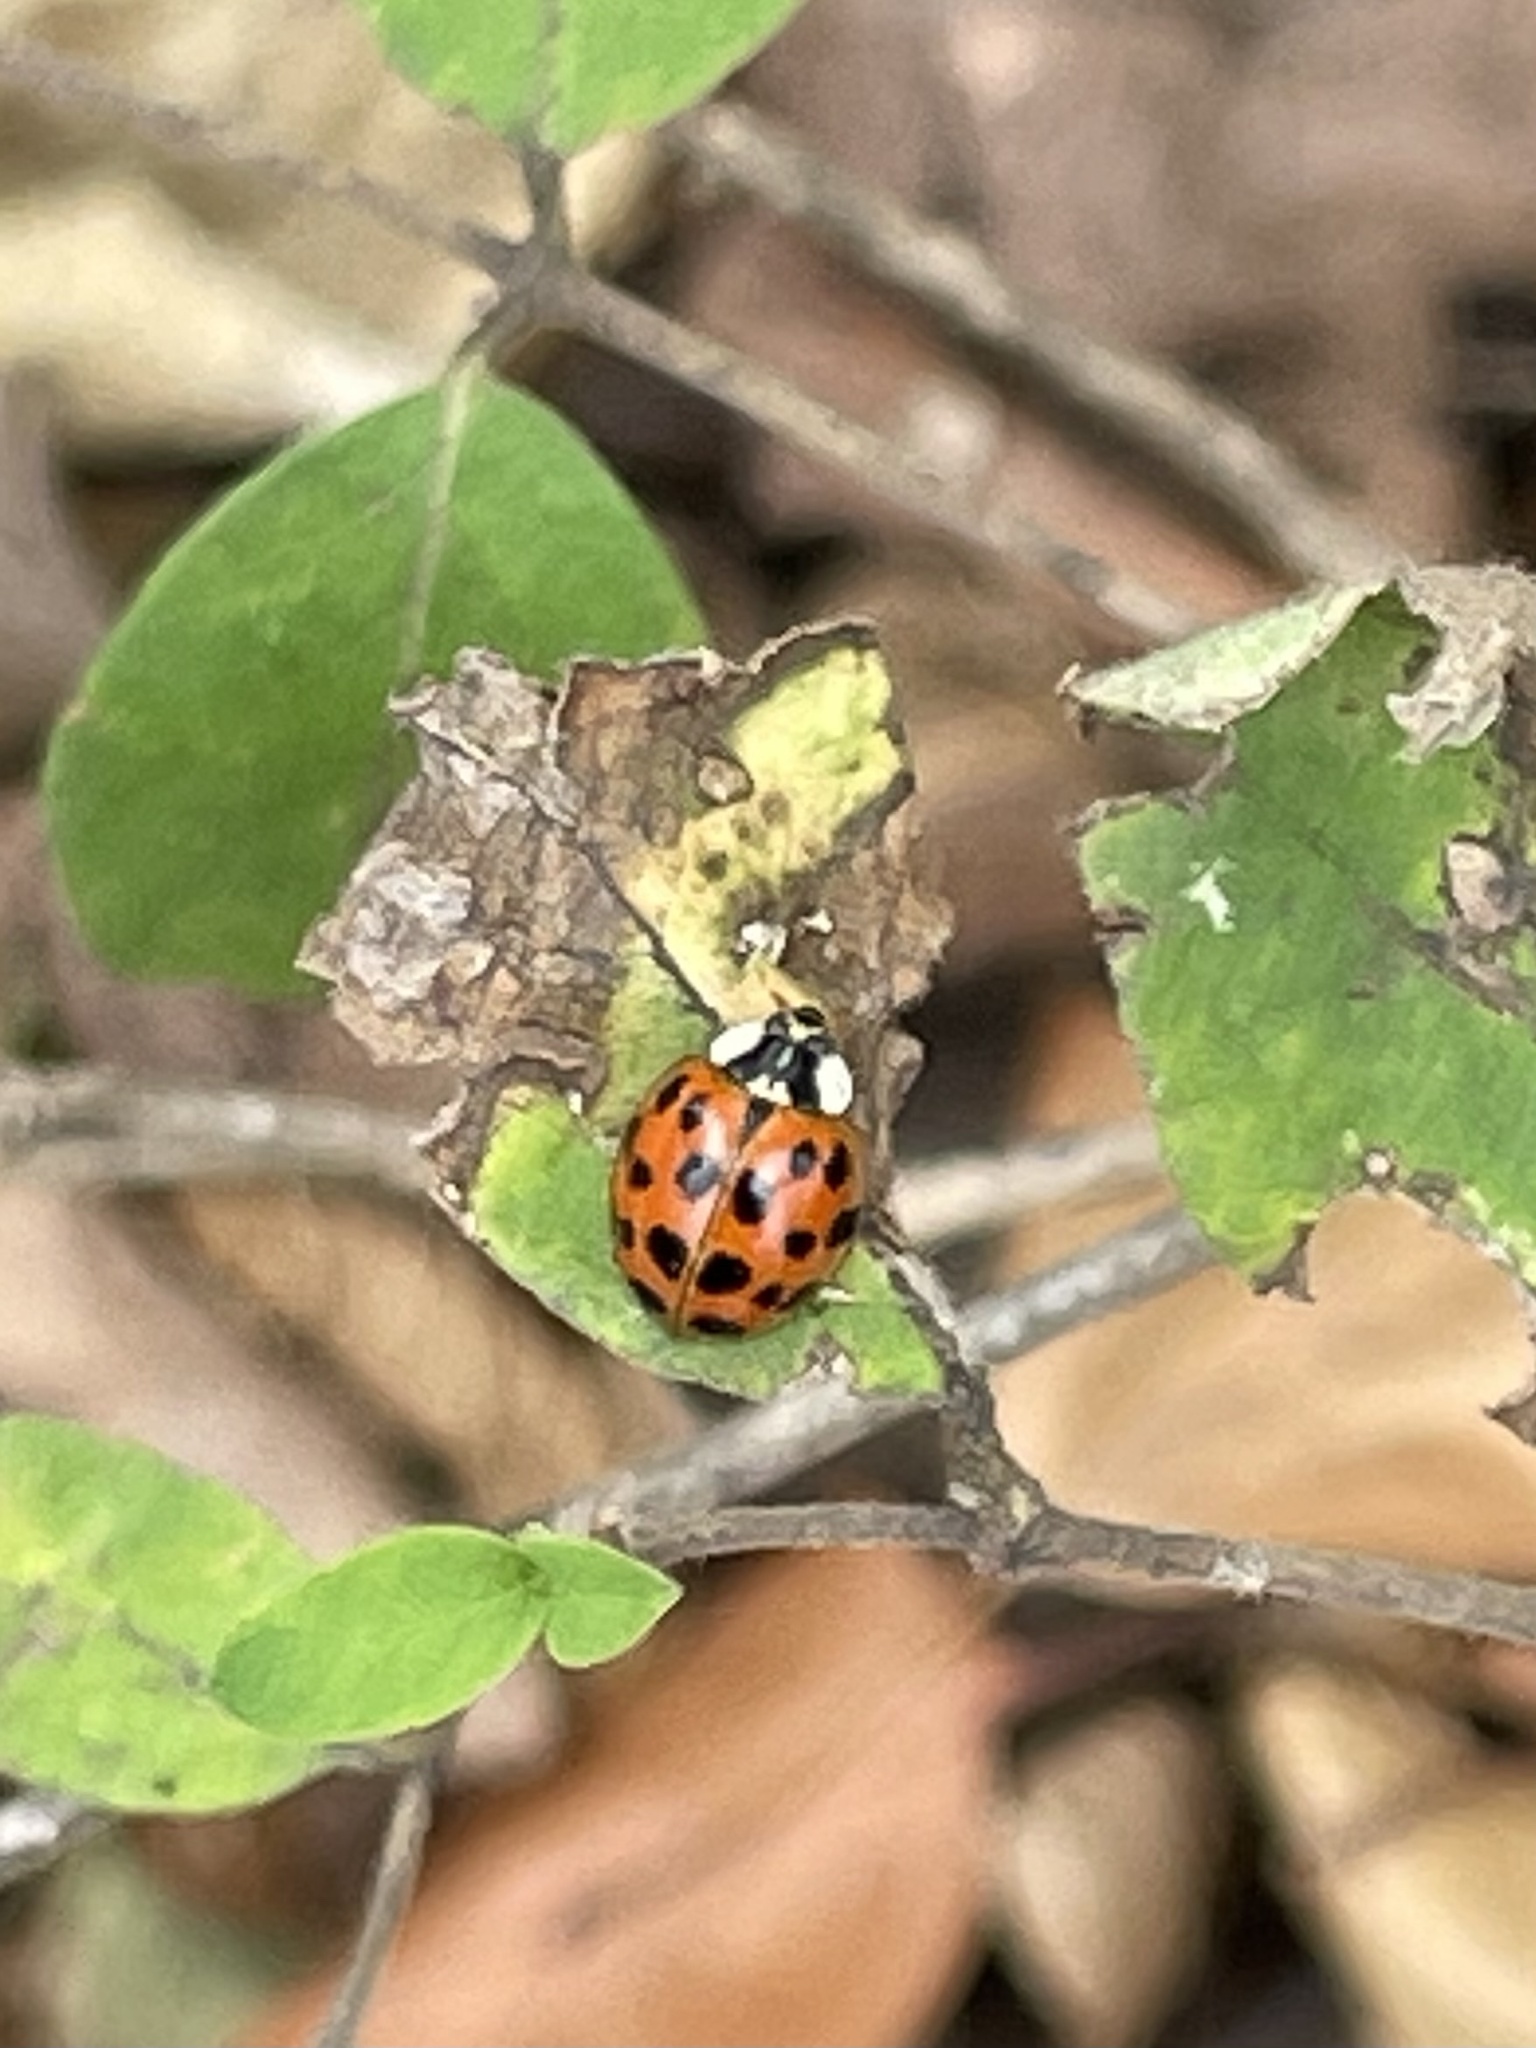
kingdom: Animalia
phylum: Arthropoda
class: Insecta
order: Coleoptera
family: Coccinellidae
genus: Harmonia
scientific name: Harmonia axyridis
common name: Harlequin ladybird
